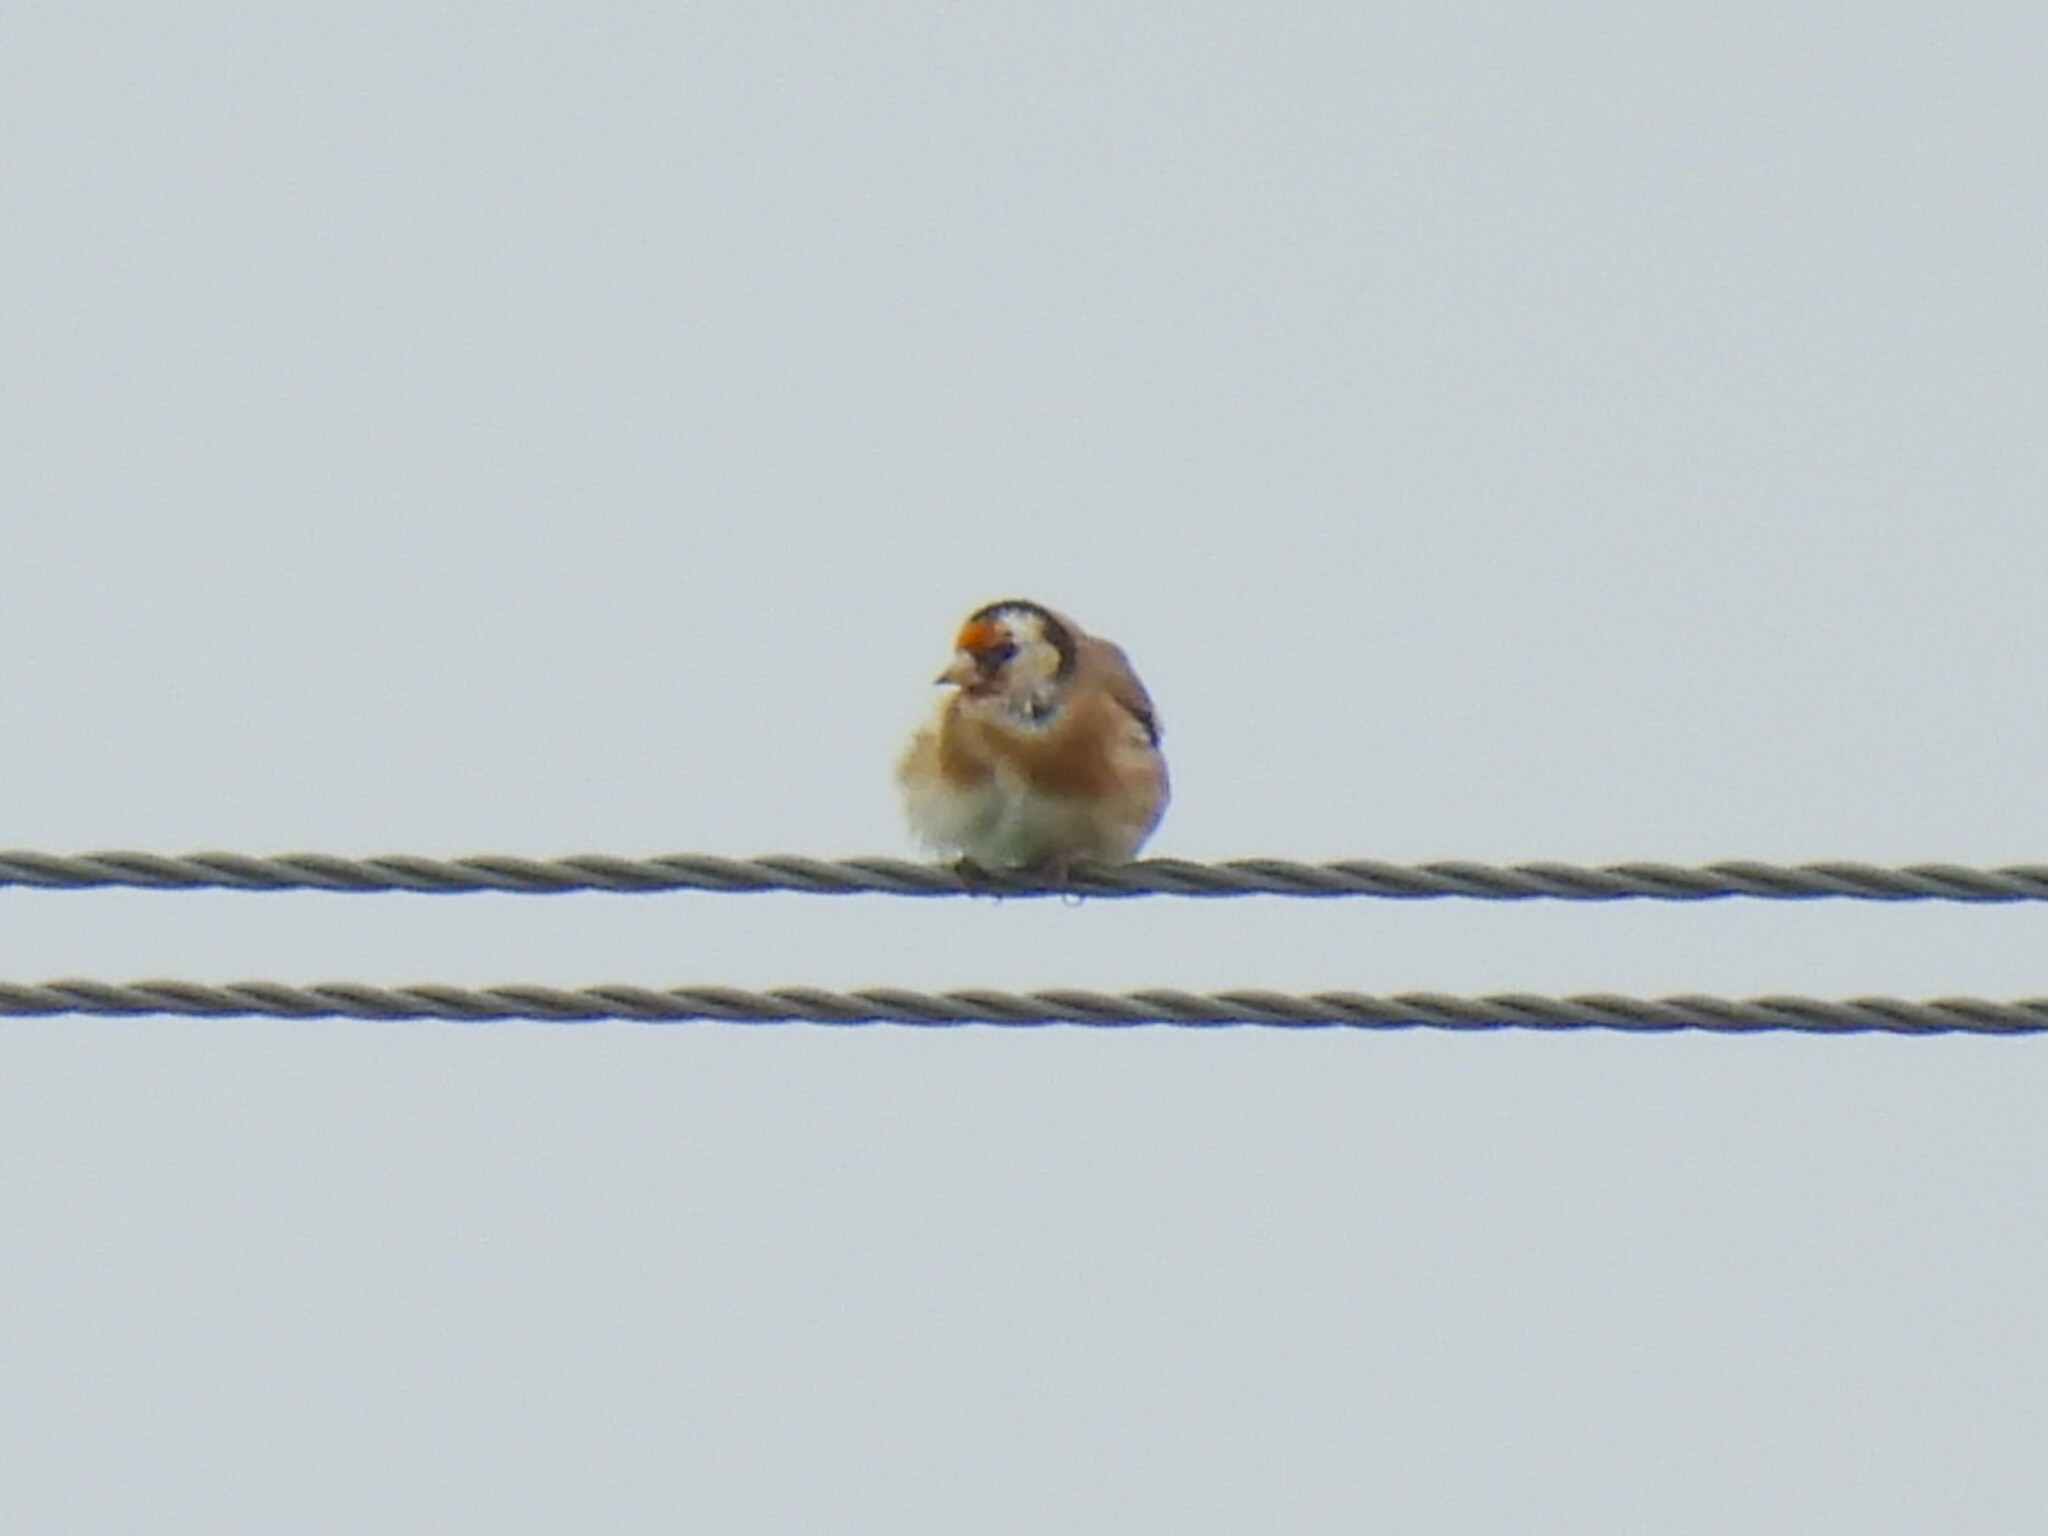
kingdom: Animalia
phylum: Chordata
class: Aves
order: Passeriformes
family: Fringillidae
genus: Carduelis
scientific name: Carduelis carduelis
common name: European goldfinch
